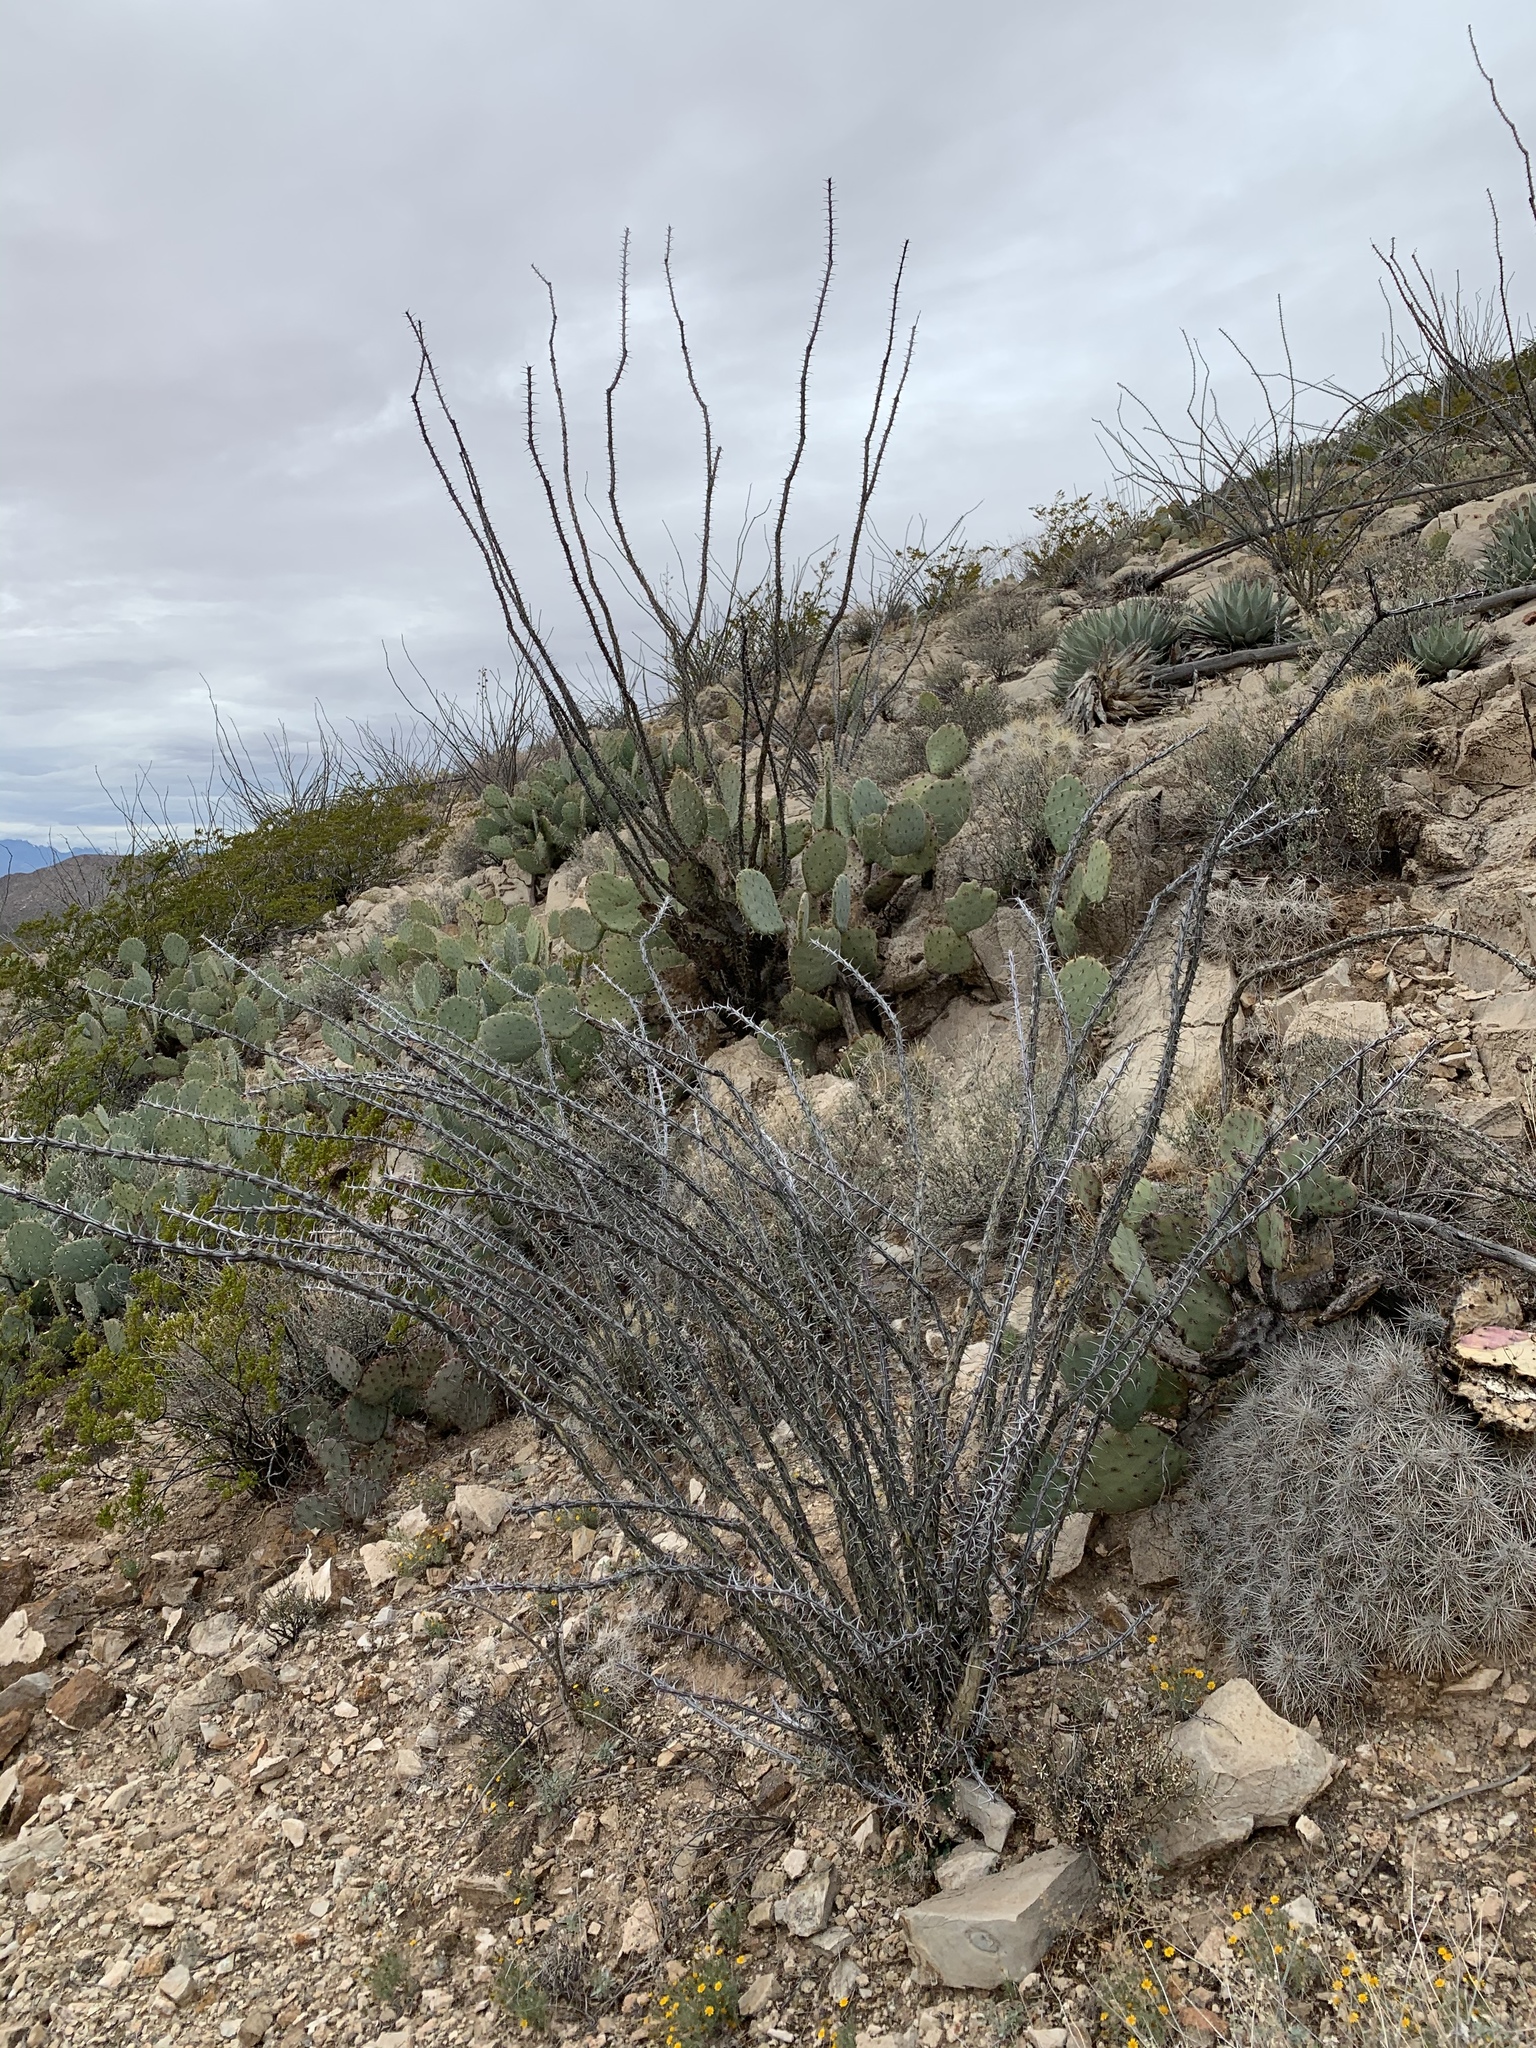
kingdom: Plantae
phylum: Tracheophyta
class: Magnoliopsida
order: Ericales
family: Fouquieriaceae
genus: Fouquieria
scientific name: Fouquieria splendens
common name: Vine-cactus
